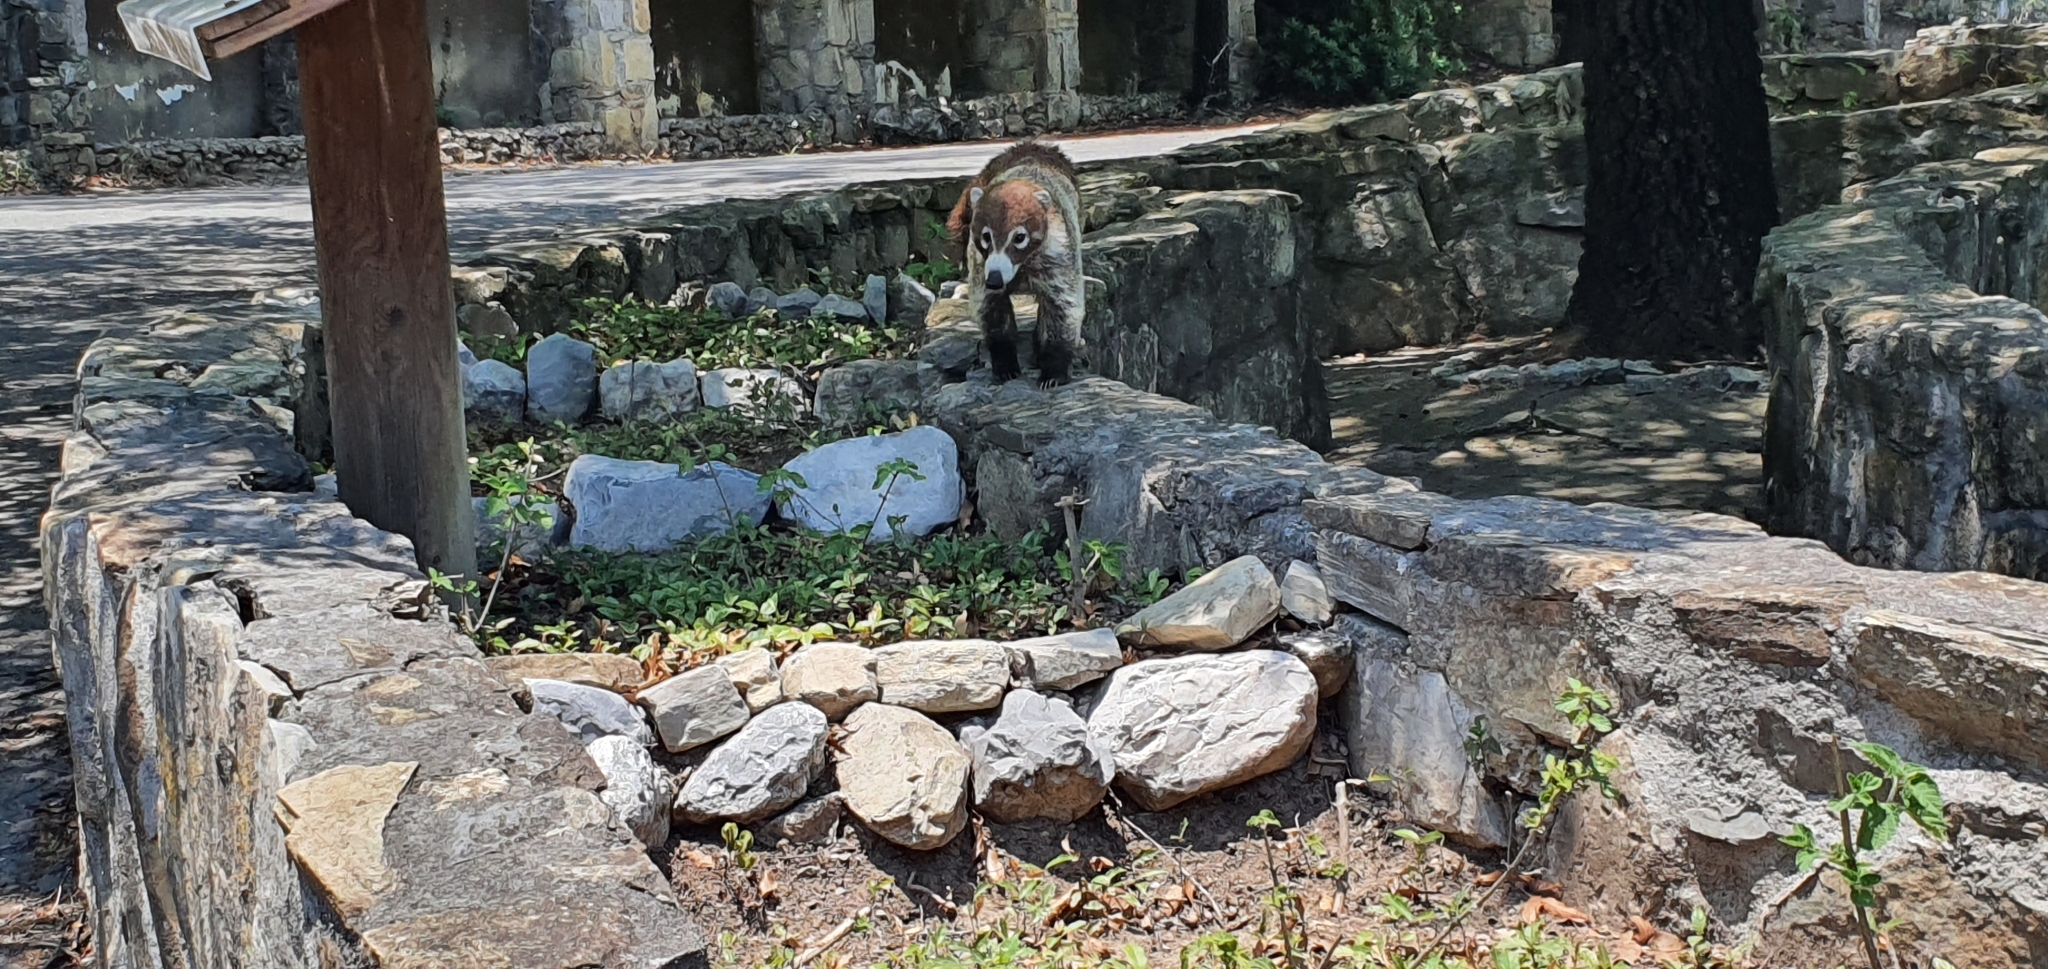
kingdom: Animalia
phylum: Chordata
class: Mammalia
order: Carnivora
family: Procyonidae
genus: Nasua
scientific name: Nasua narica
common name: White-nosed coati
